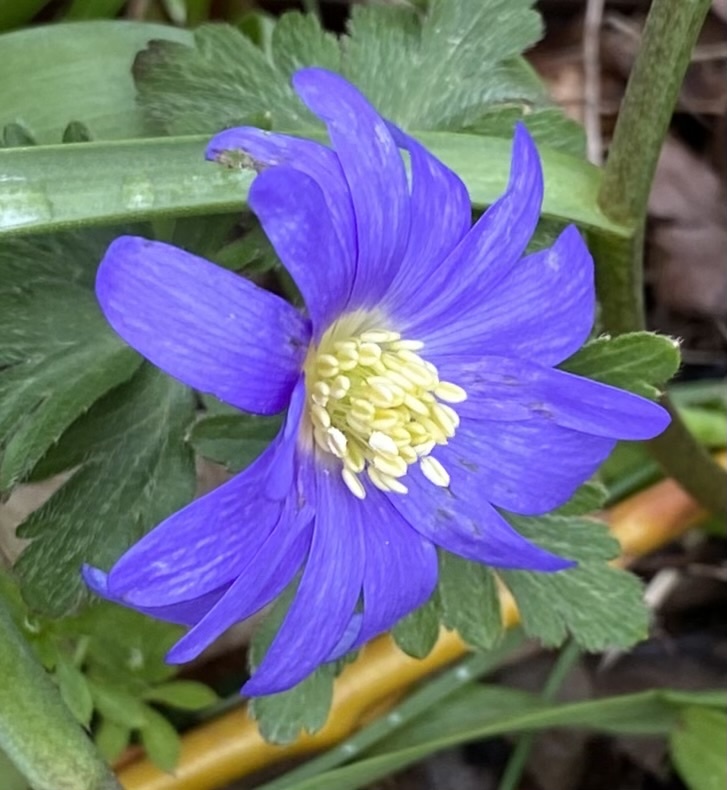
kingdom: Plantae
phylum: Tracheophyta
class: Magnoliopsida
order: Ranunculales
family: Ranunculaceae
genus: Anemone
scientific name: Anemone blanda
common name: Balkan anemone
